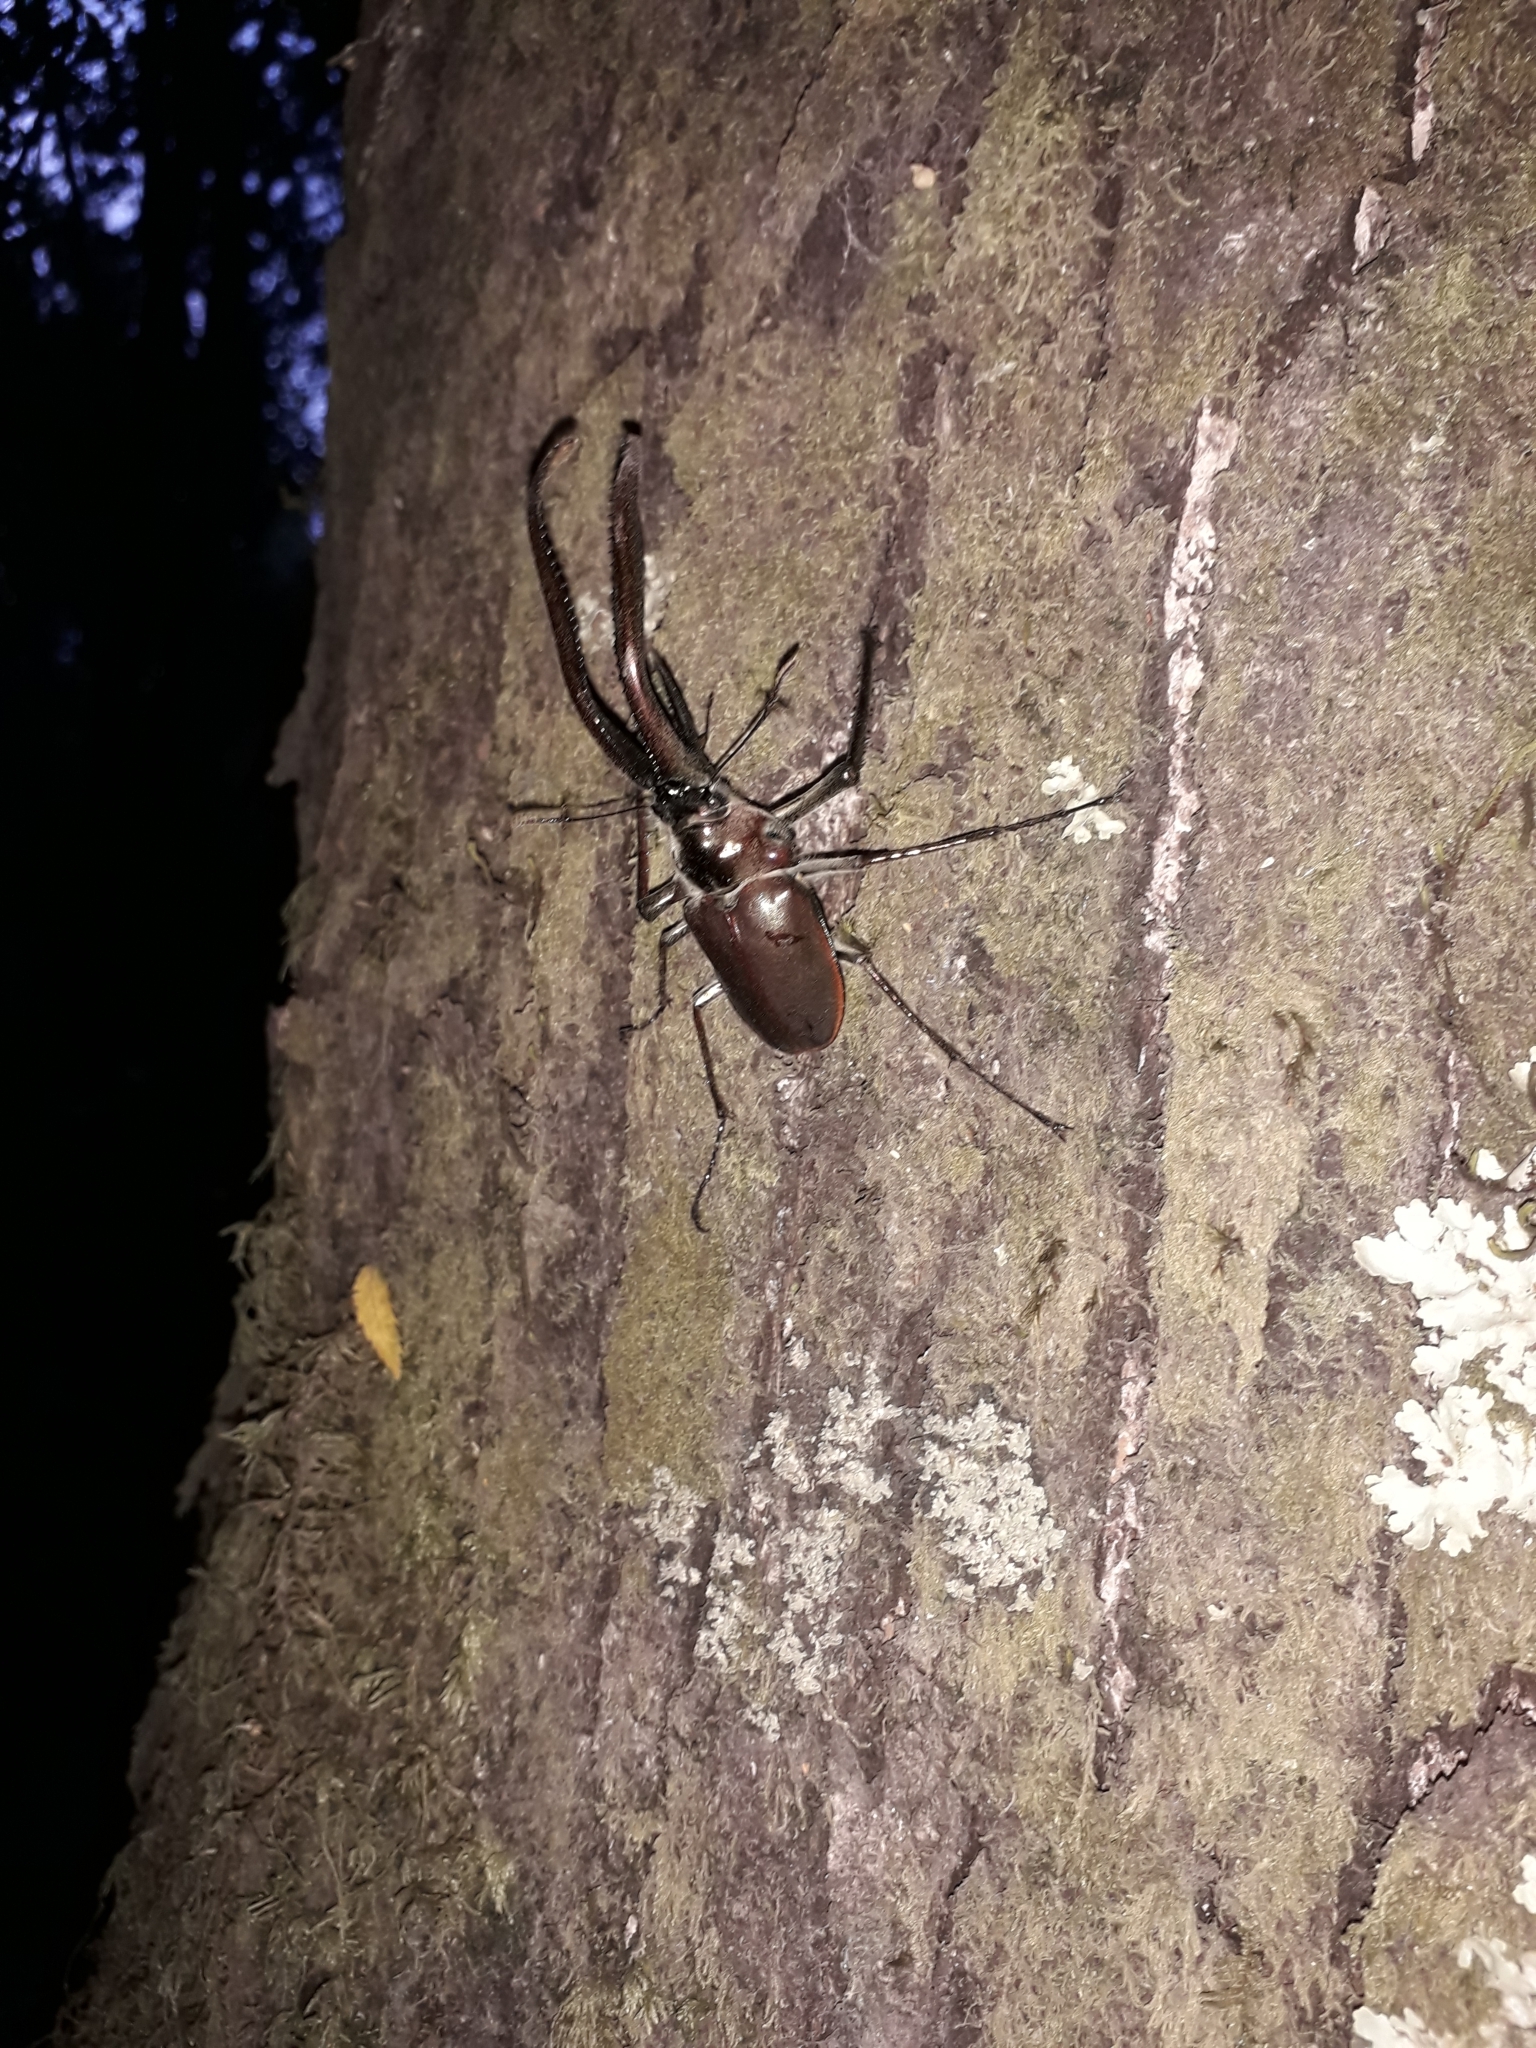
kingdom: Animalia
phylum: Arthropoda
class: Insecta
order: Coleoptera
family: Lucanidae
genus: Chiasognathus
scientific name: Chiasognathus grantii
